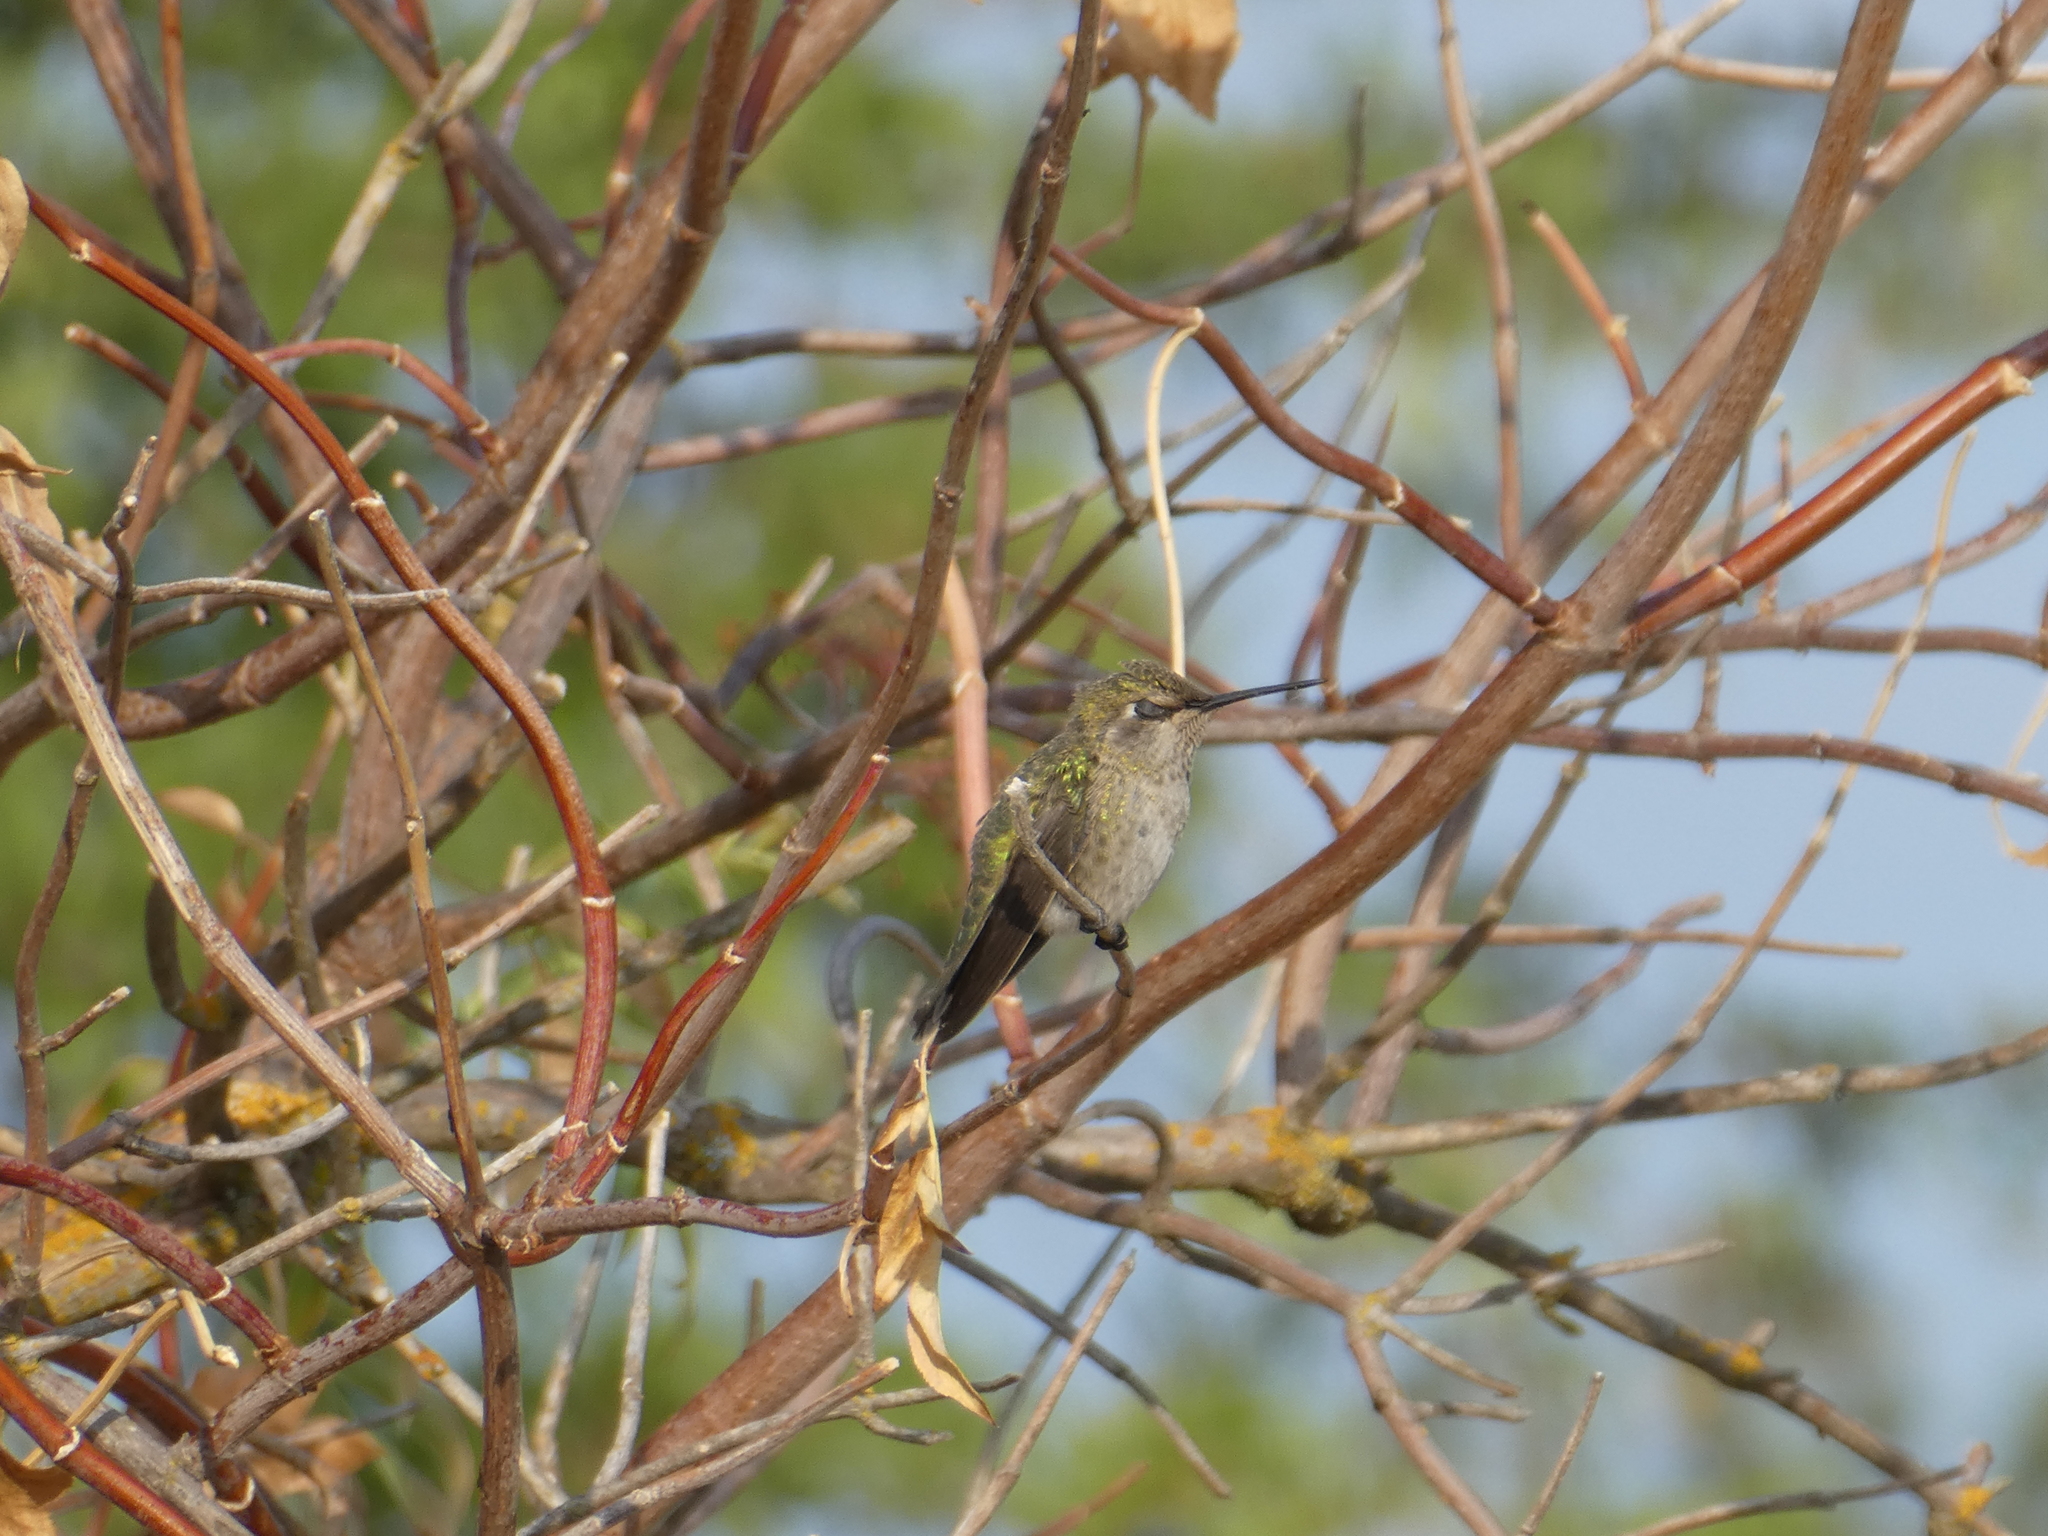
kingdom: Animalia
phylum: Chordata
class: Aves
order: Apodiformes
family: Trochilidae
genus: Calypte
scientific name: Calypte anna
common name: Anna's hummingbird
